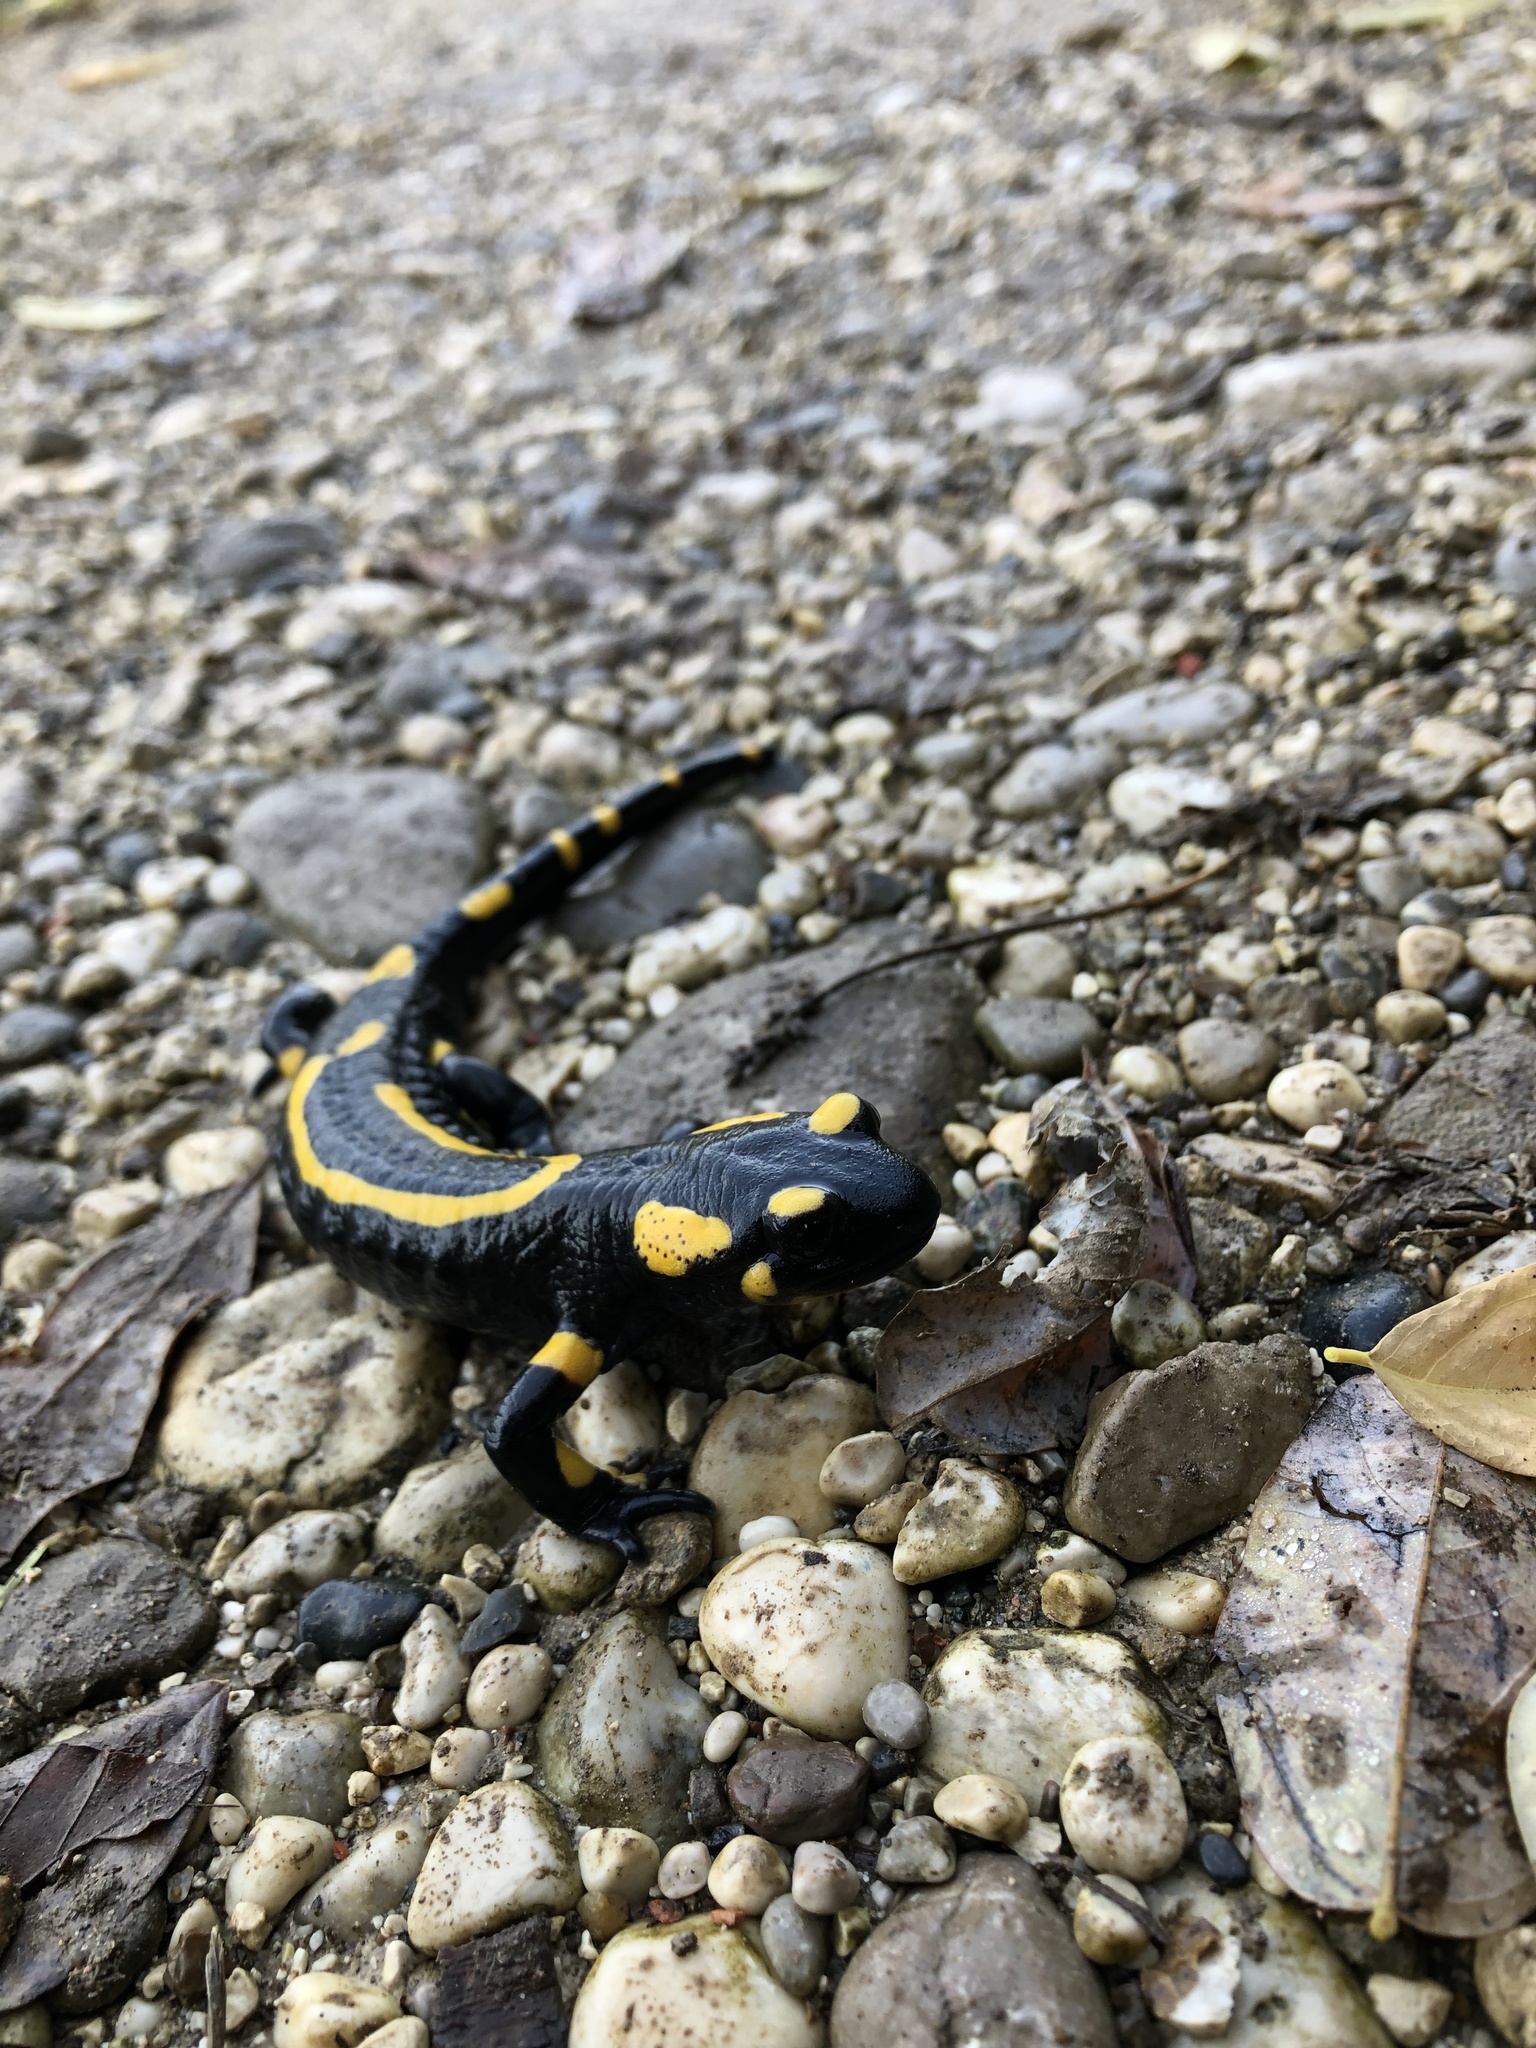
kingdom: Animalia
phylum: Chordata
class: Amphibia
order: Caudata
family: Salamandridae
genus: Salamandra
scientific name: Salamandra salamandra
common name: Fire salamander
